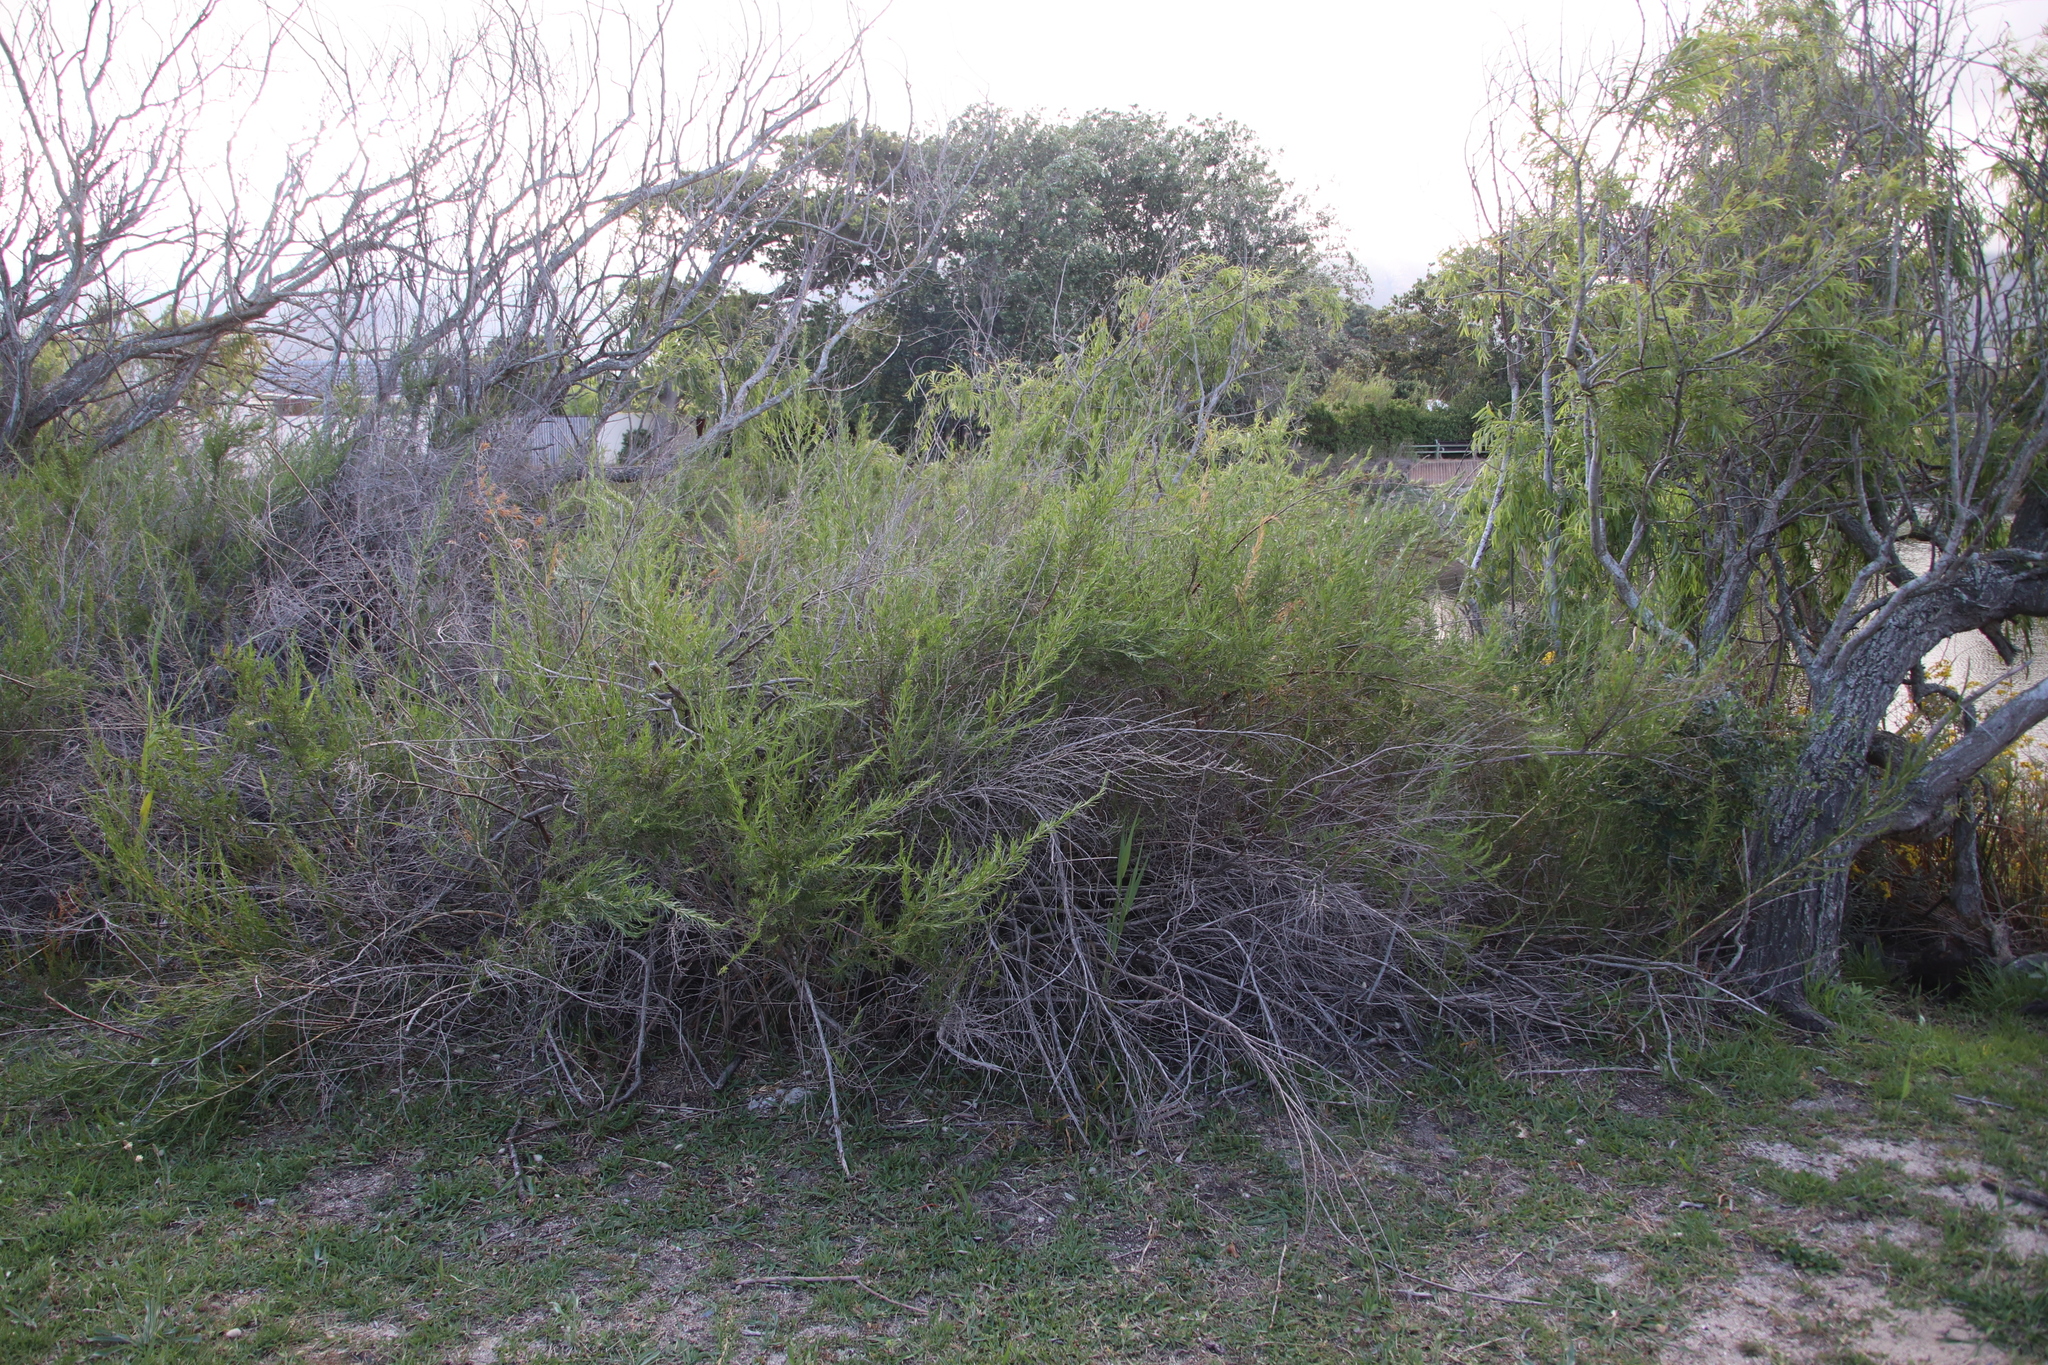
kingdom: Plantae
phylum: Tracheophyta
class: Magnoliopsida
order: Rosales
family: Rosaceae
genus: Cliffortia
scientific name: Cliffortia strobilifera
